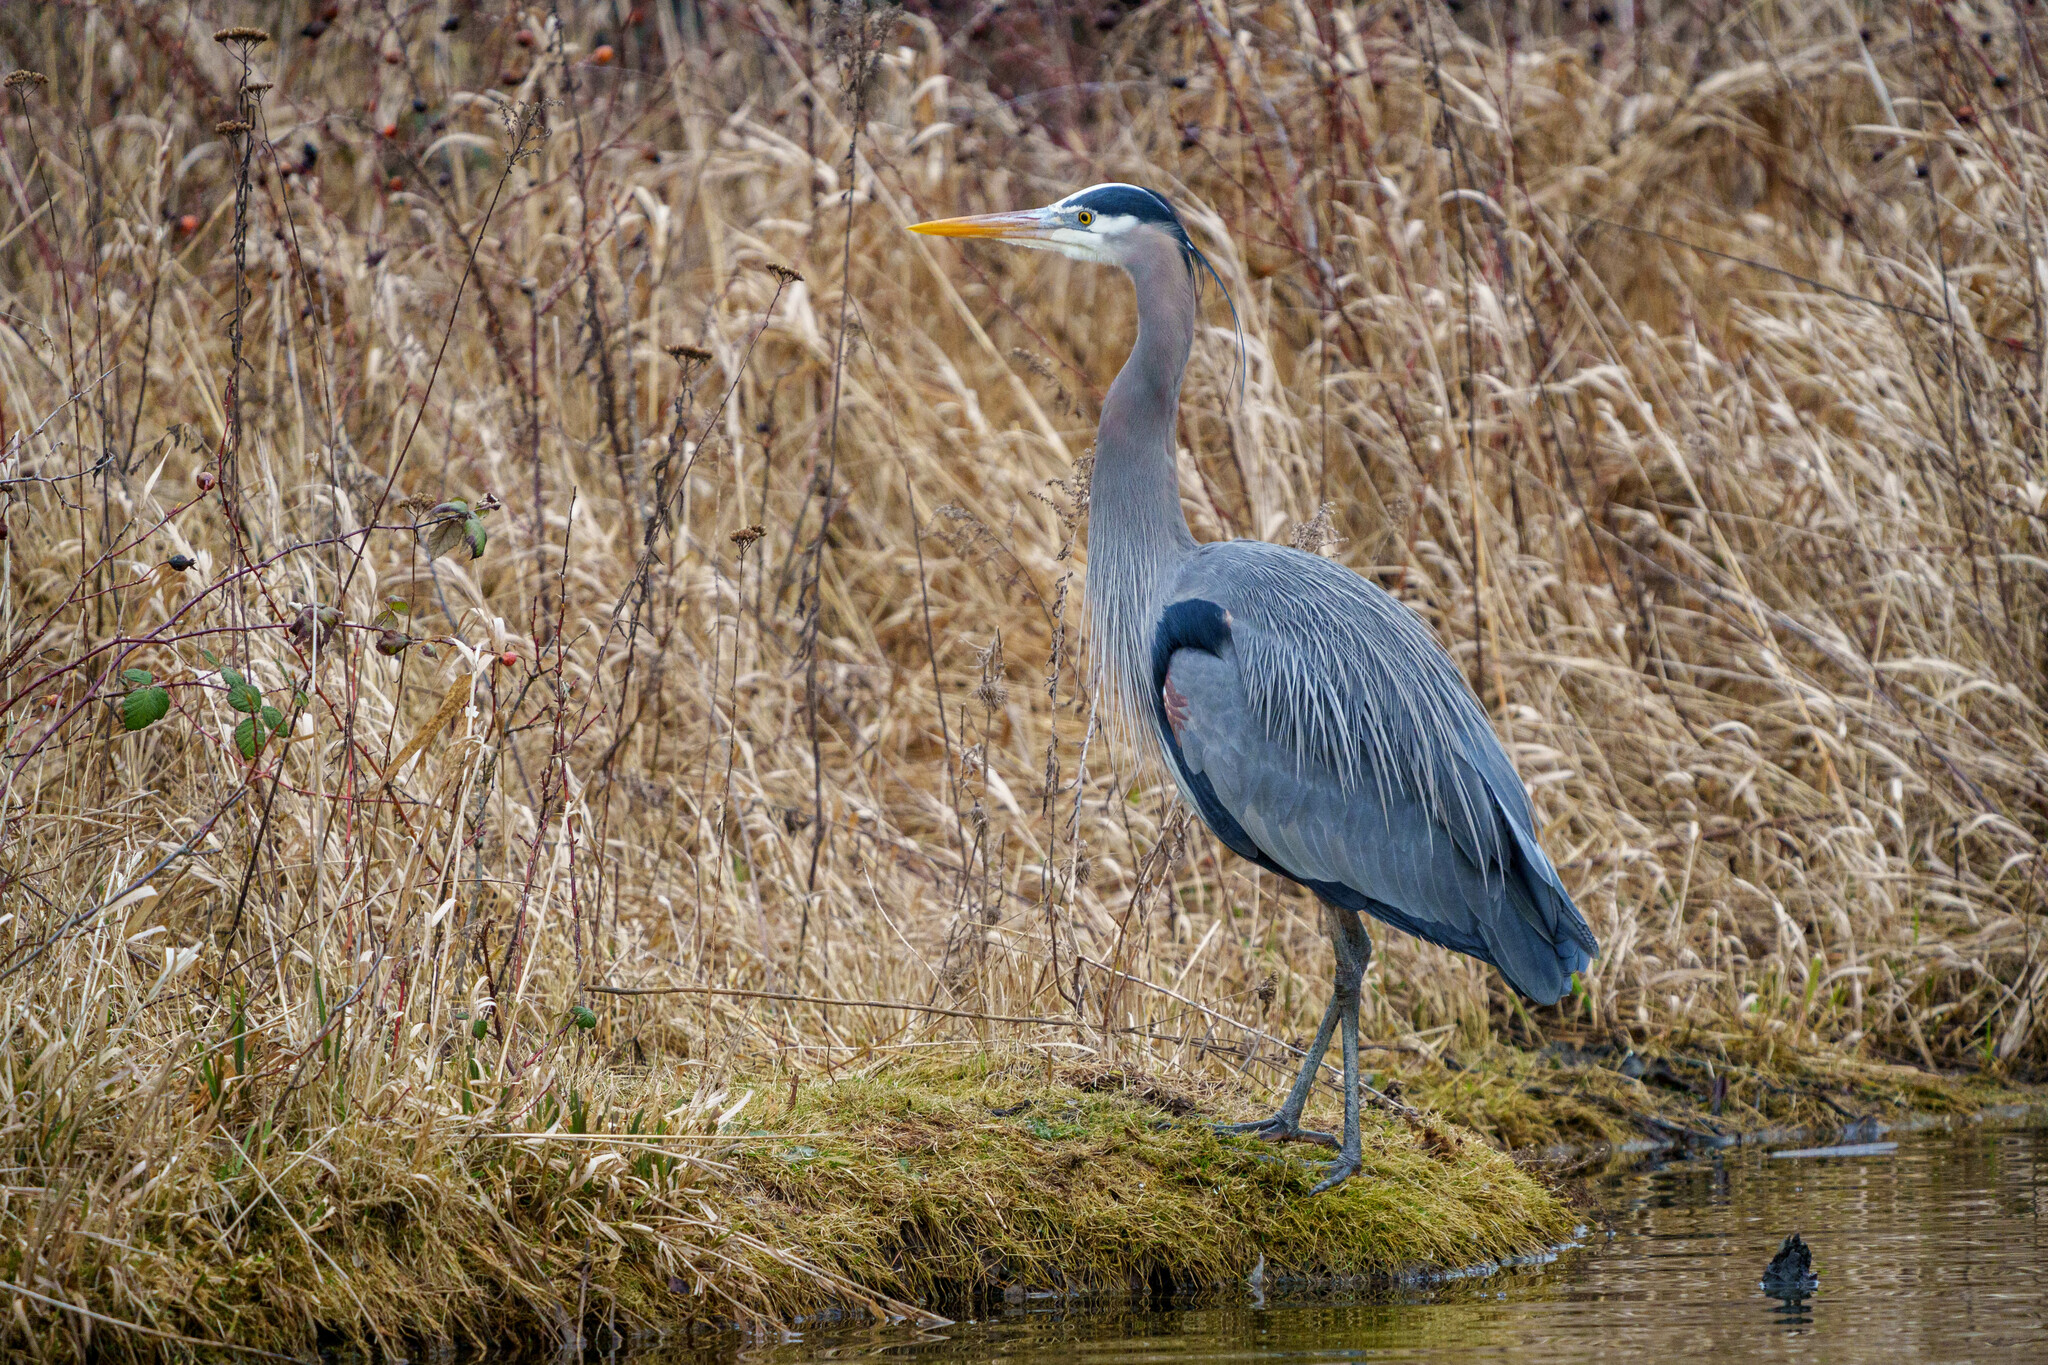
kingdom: Animalia
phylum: Chordata
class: Aves
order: Pelecaniformes
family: Ardeidae
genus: Ardea
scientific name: Ardea herodias
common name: Great blue heron
